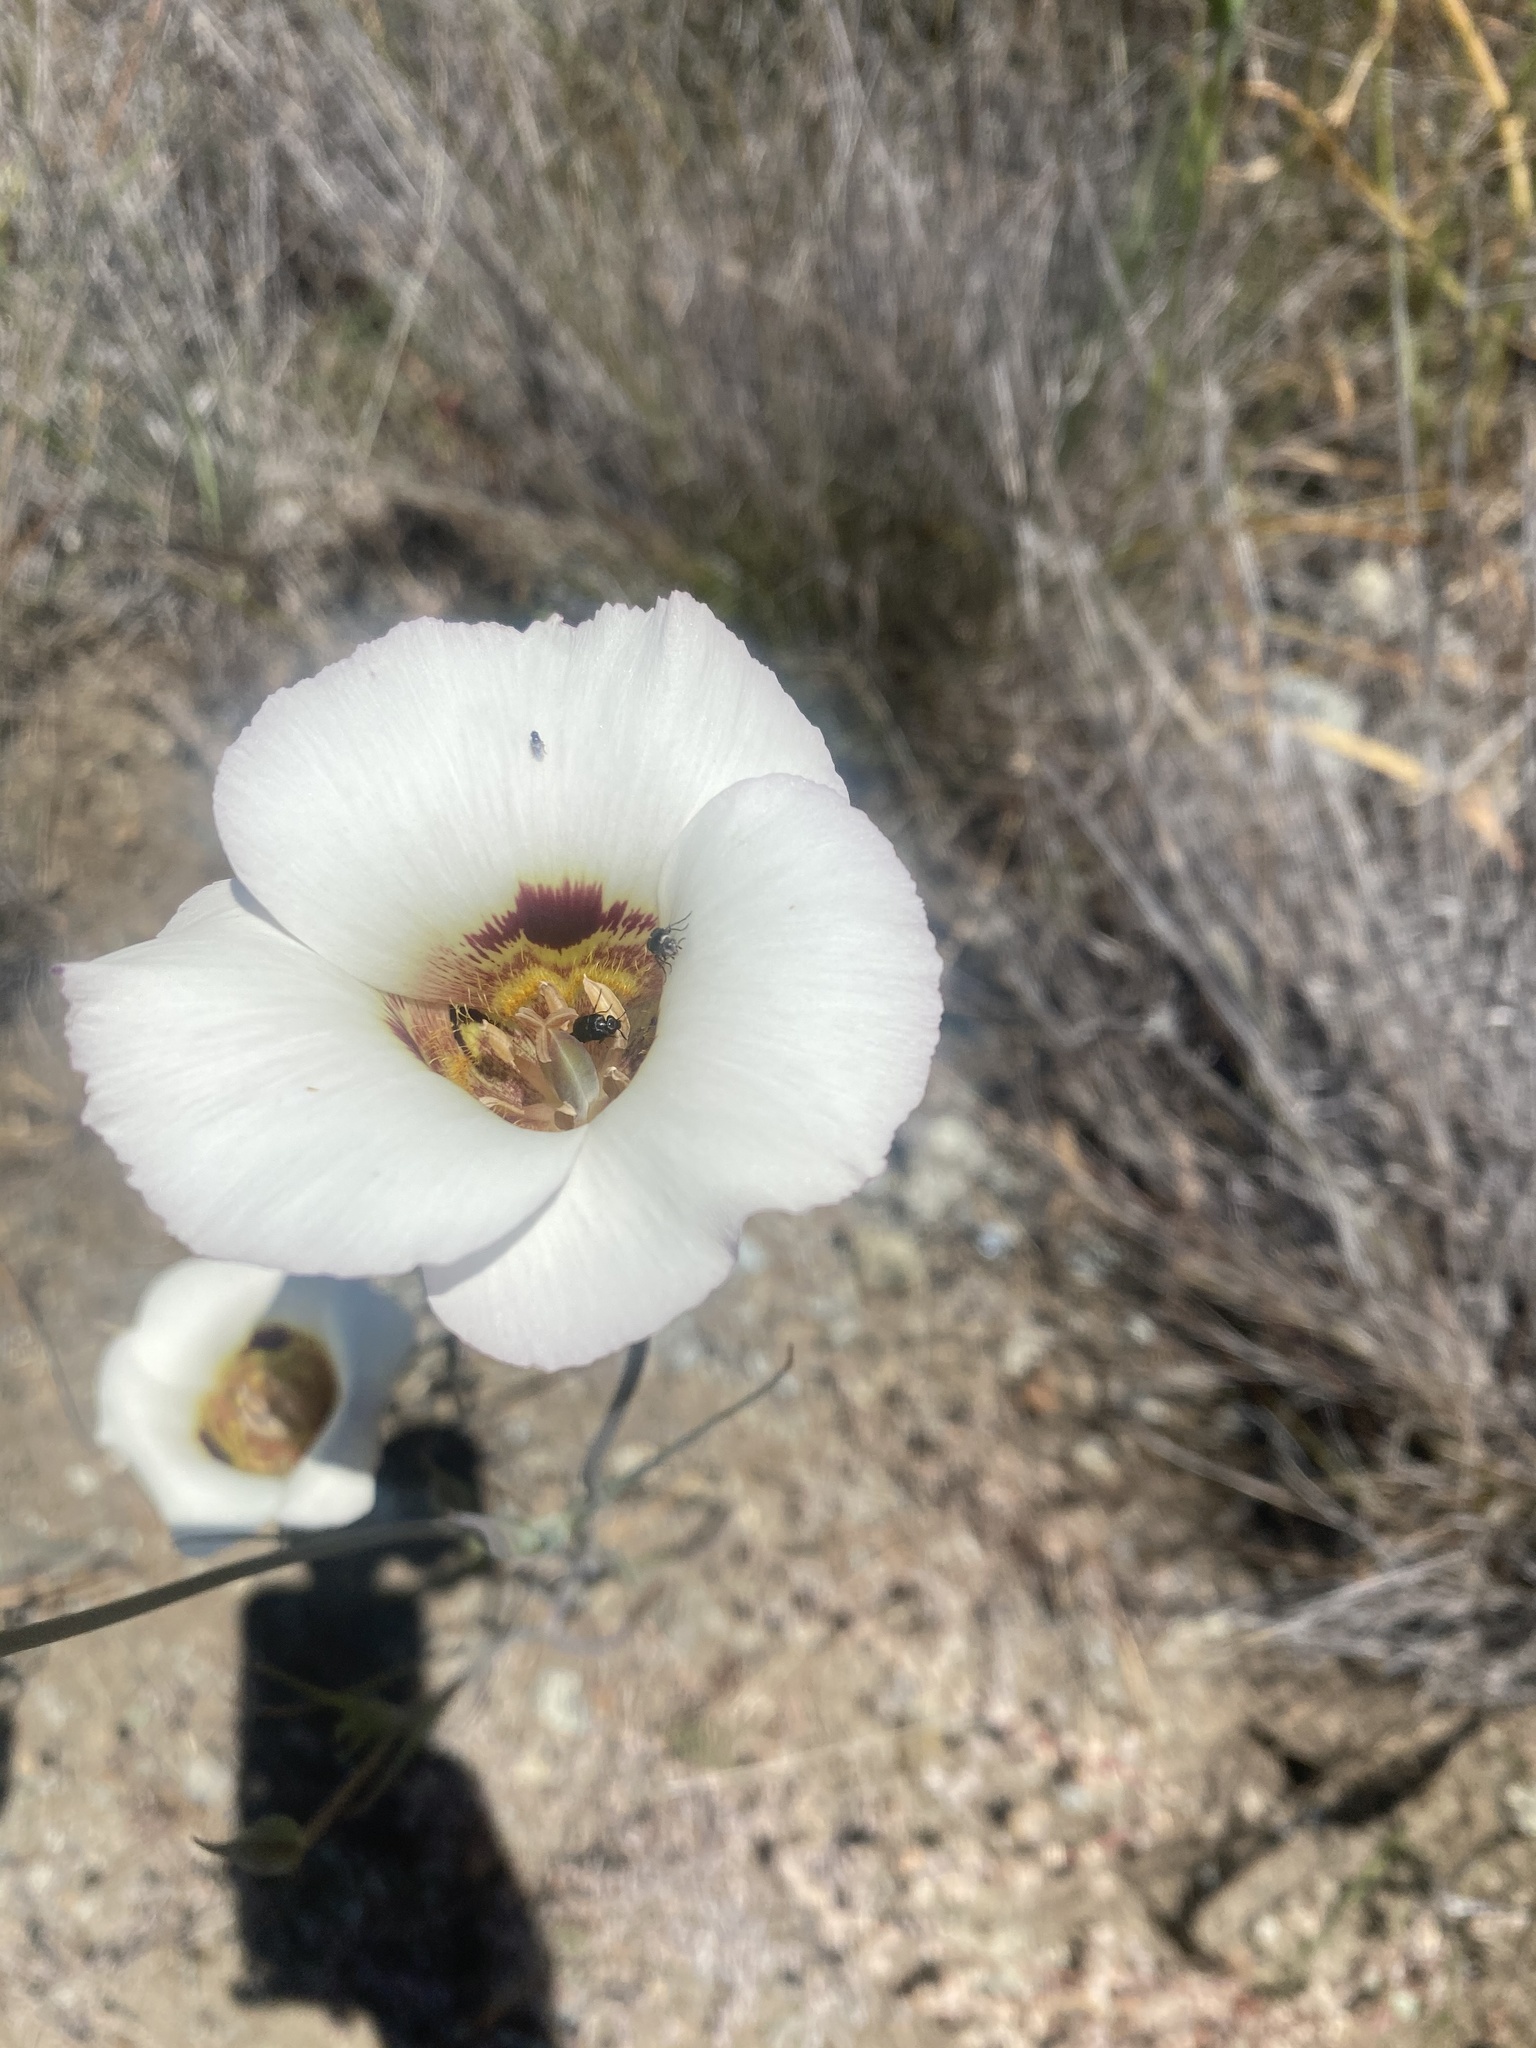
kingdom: Plantae
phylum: Tracheophyta
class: Liliopsida
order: Liliales
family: Liliaceae
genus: Calochortus
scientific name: Calochortus vestae
